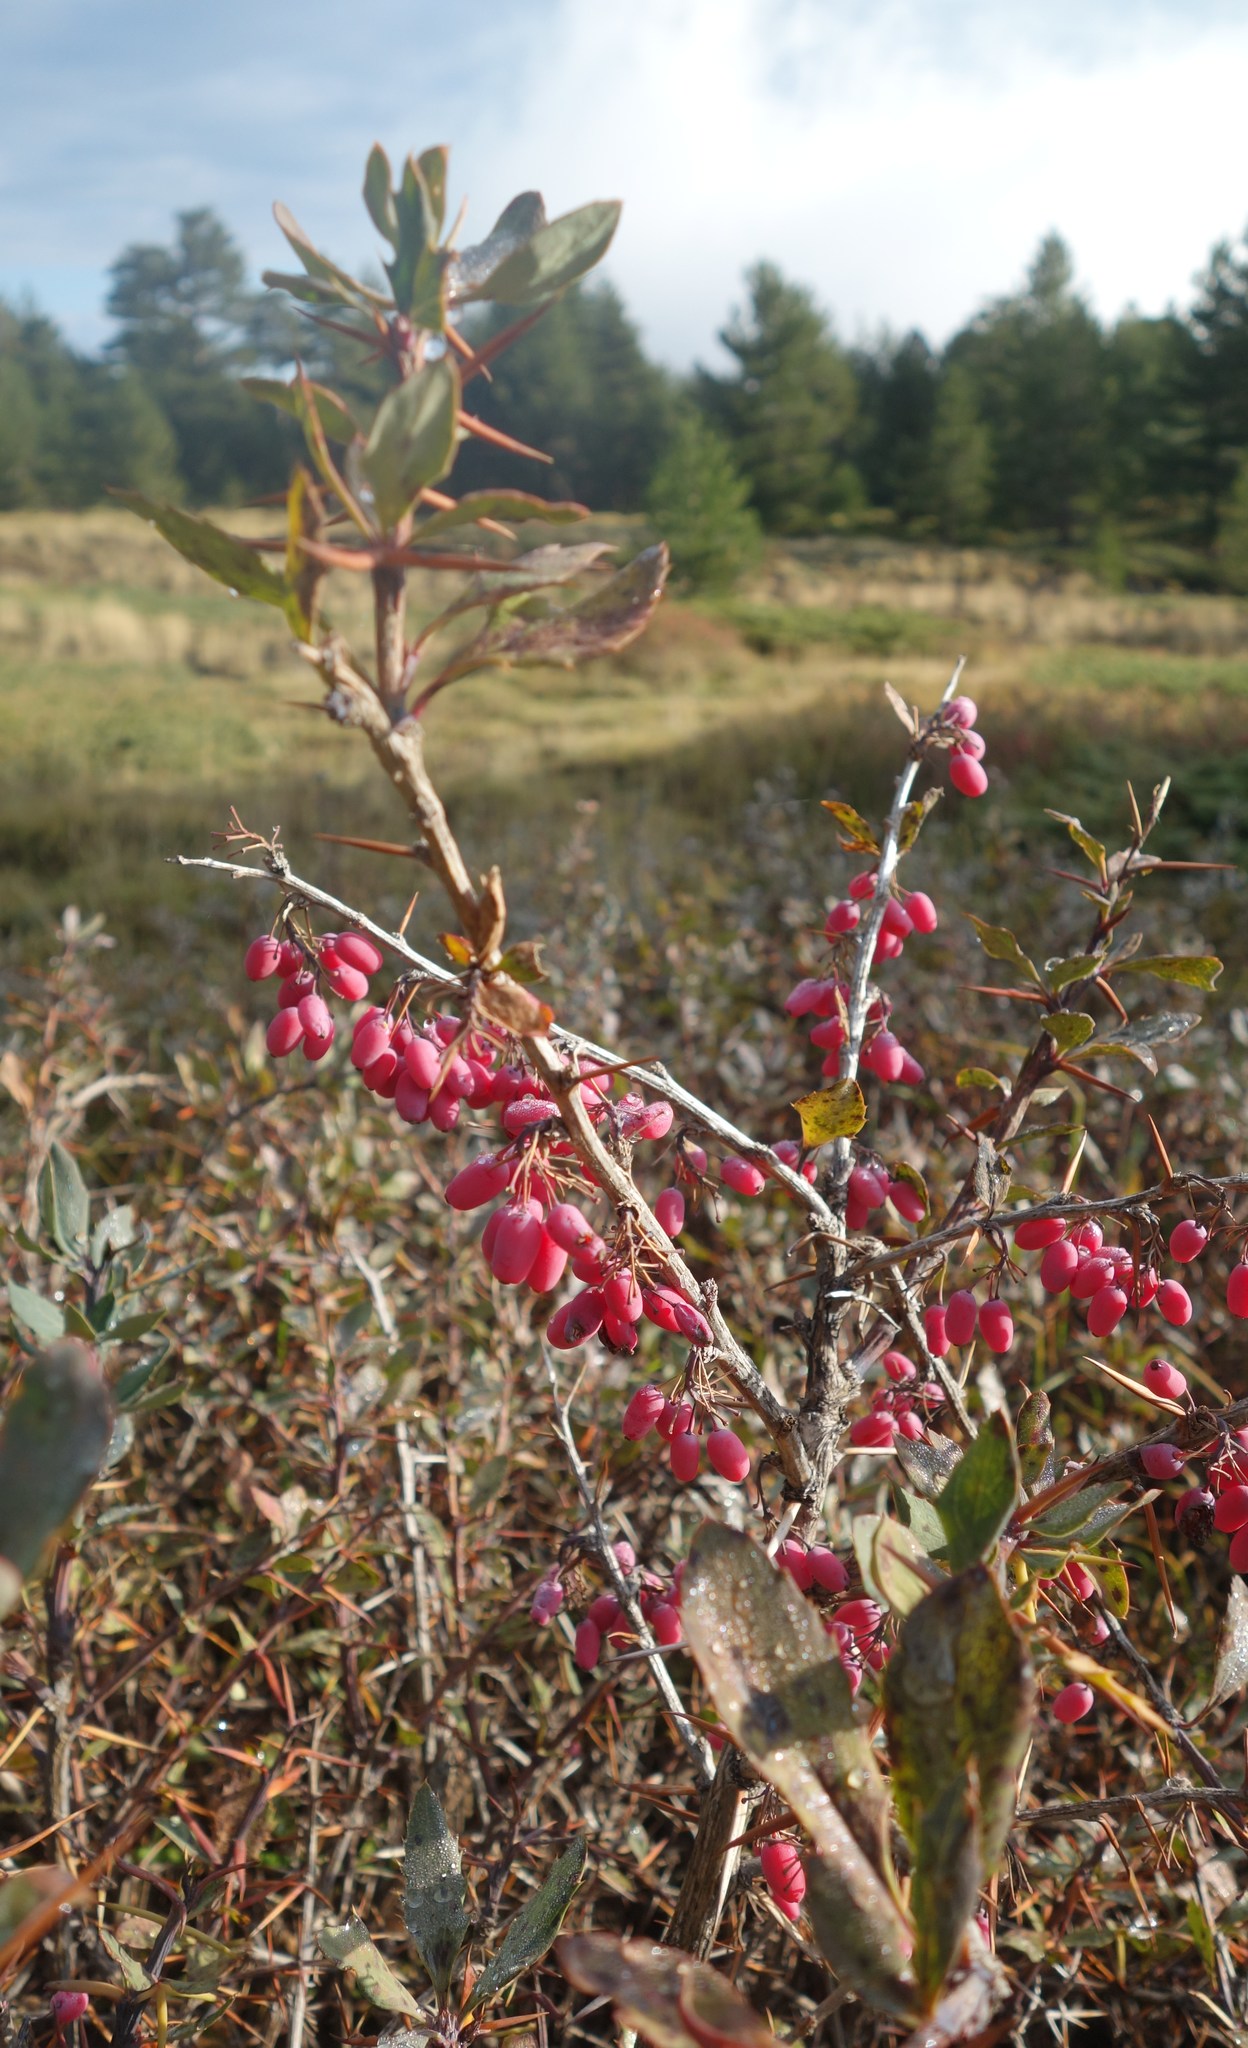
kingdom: Plantae
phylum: Tracheophyta
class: Magnoliopsida
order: Ranunculales
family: Berberidaceae
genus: Berberis
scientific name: Berberis aetnensis
